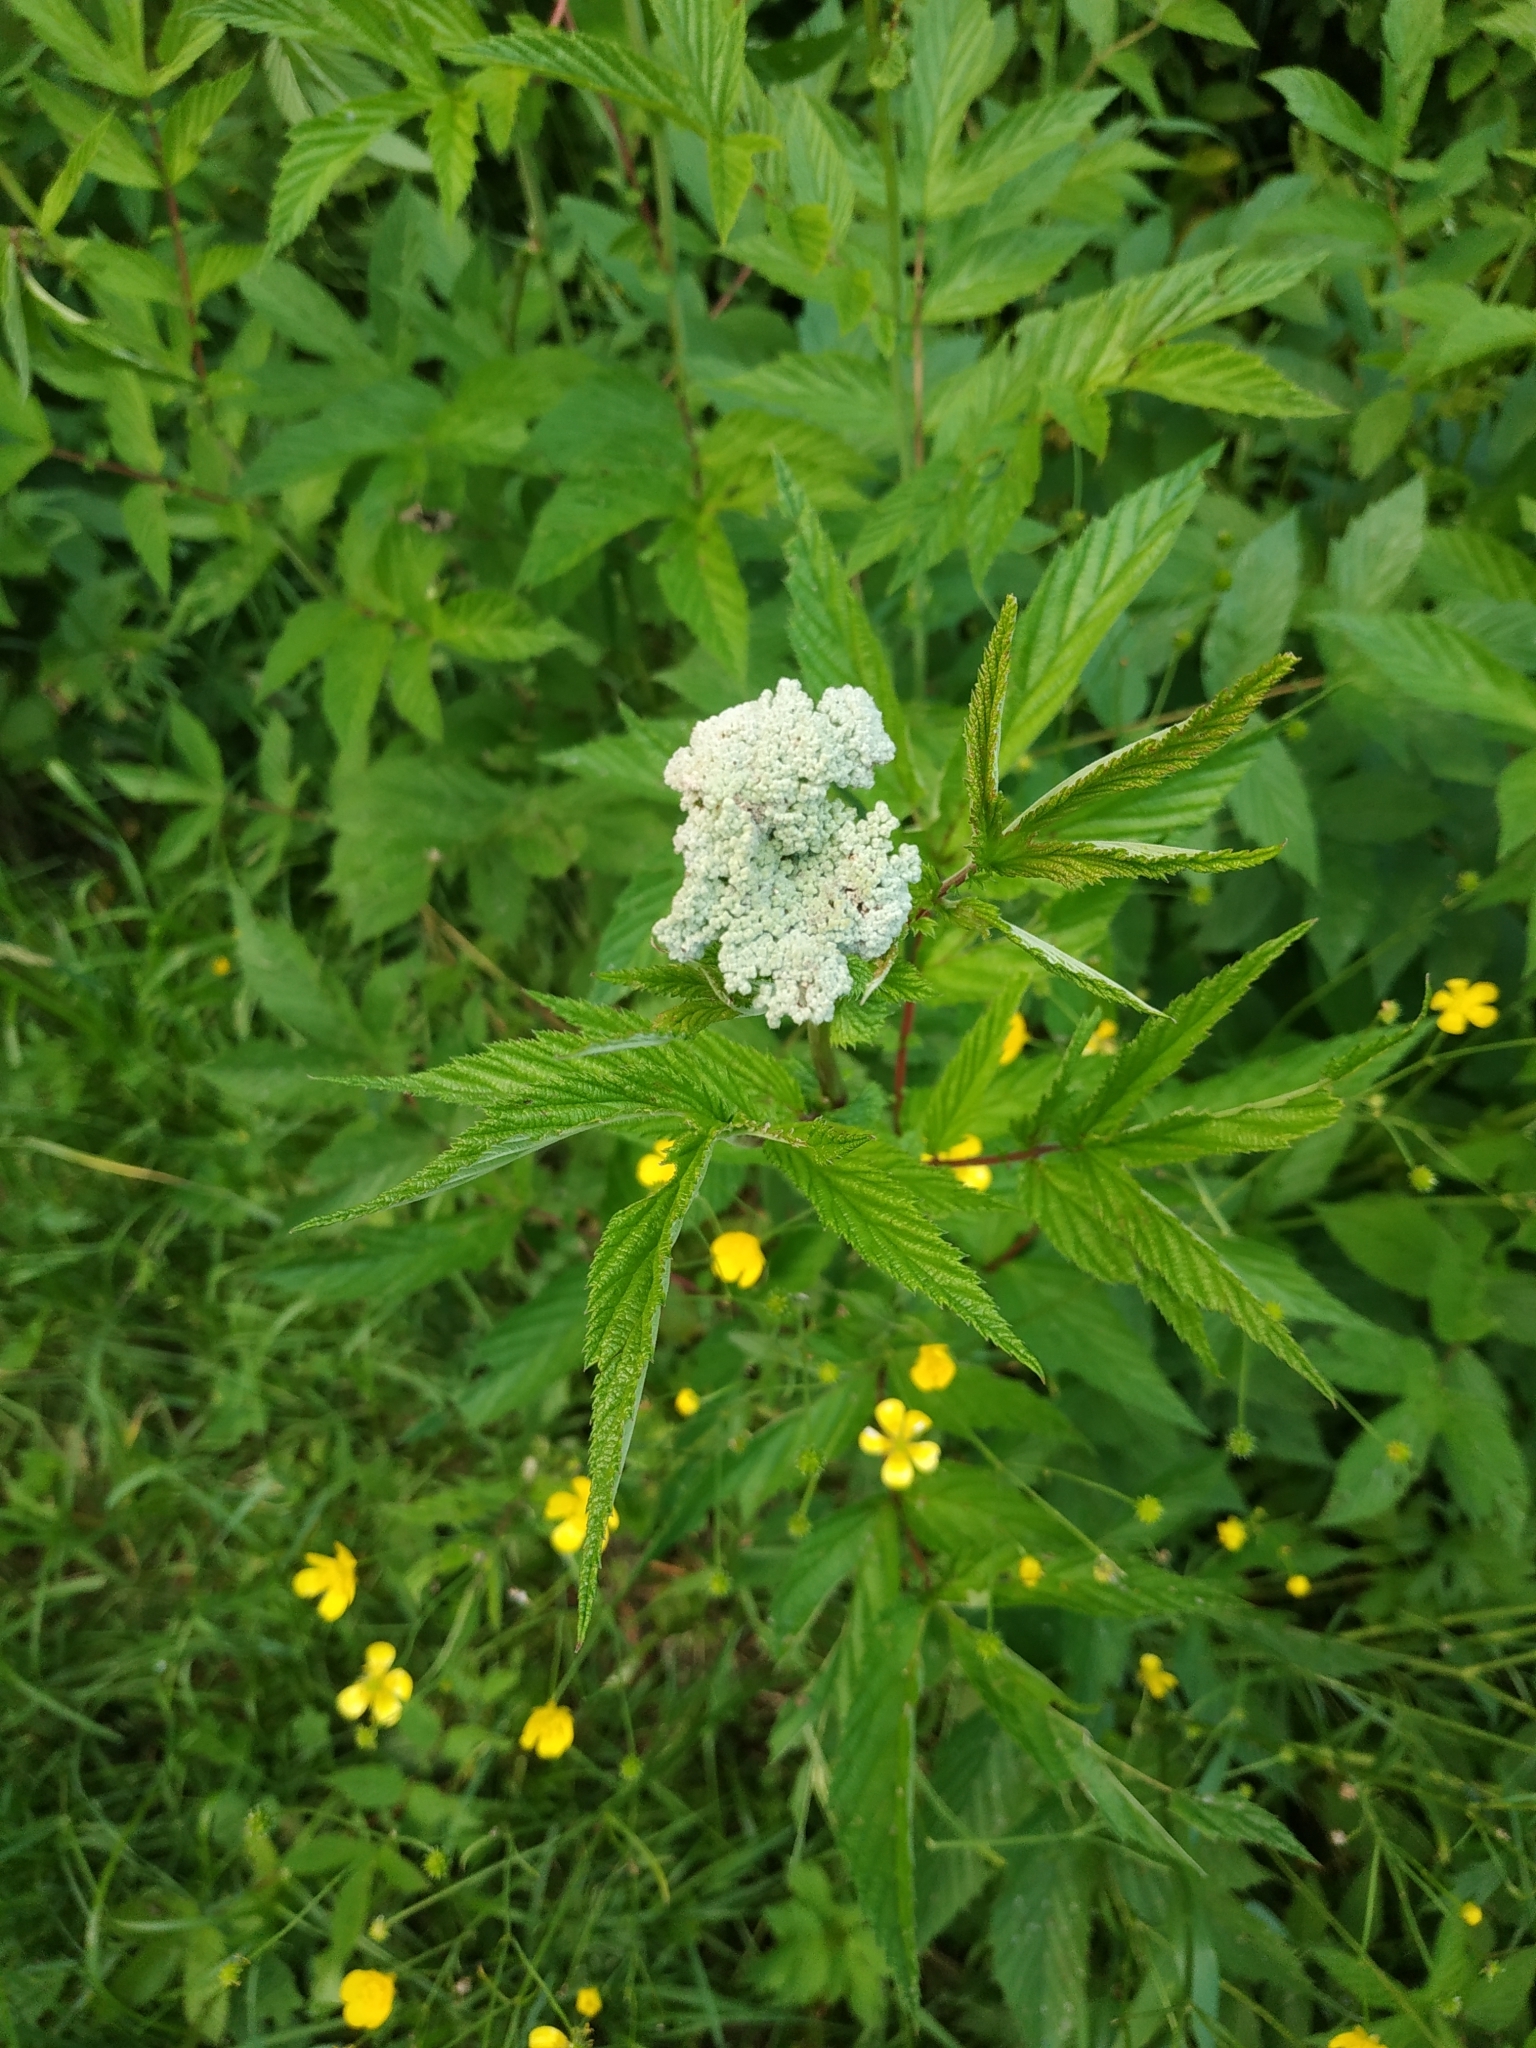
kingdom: Plantae
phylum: Tracheophyta
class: Magnoliopsida
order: Rosales
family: Rosaceae
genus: Filipendula
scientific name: Filipendula ulmaria
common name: Meadowsweet
